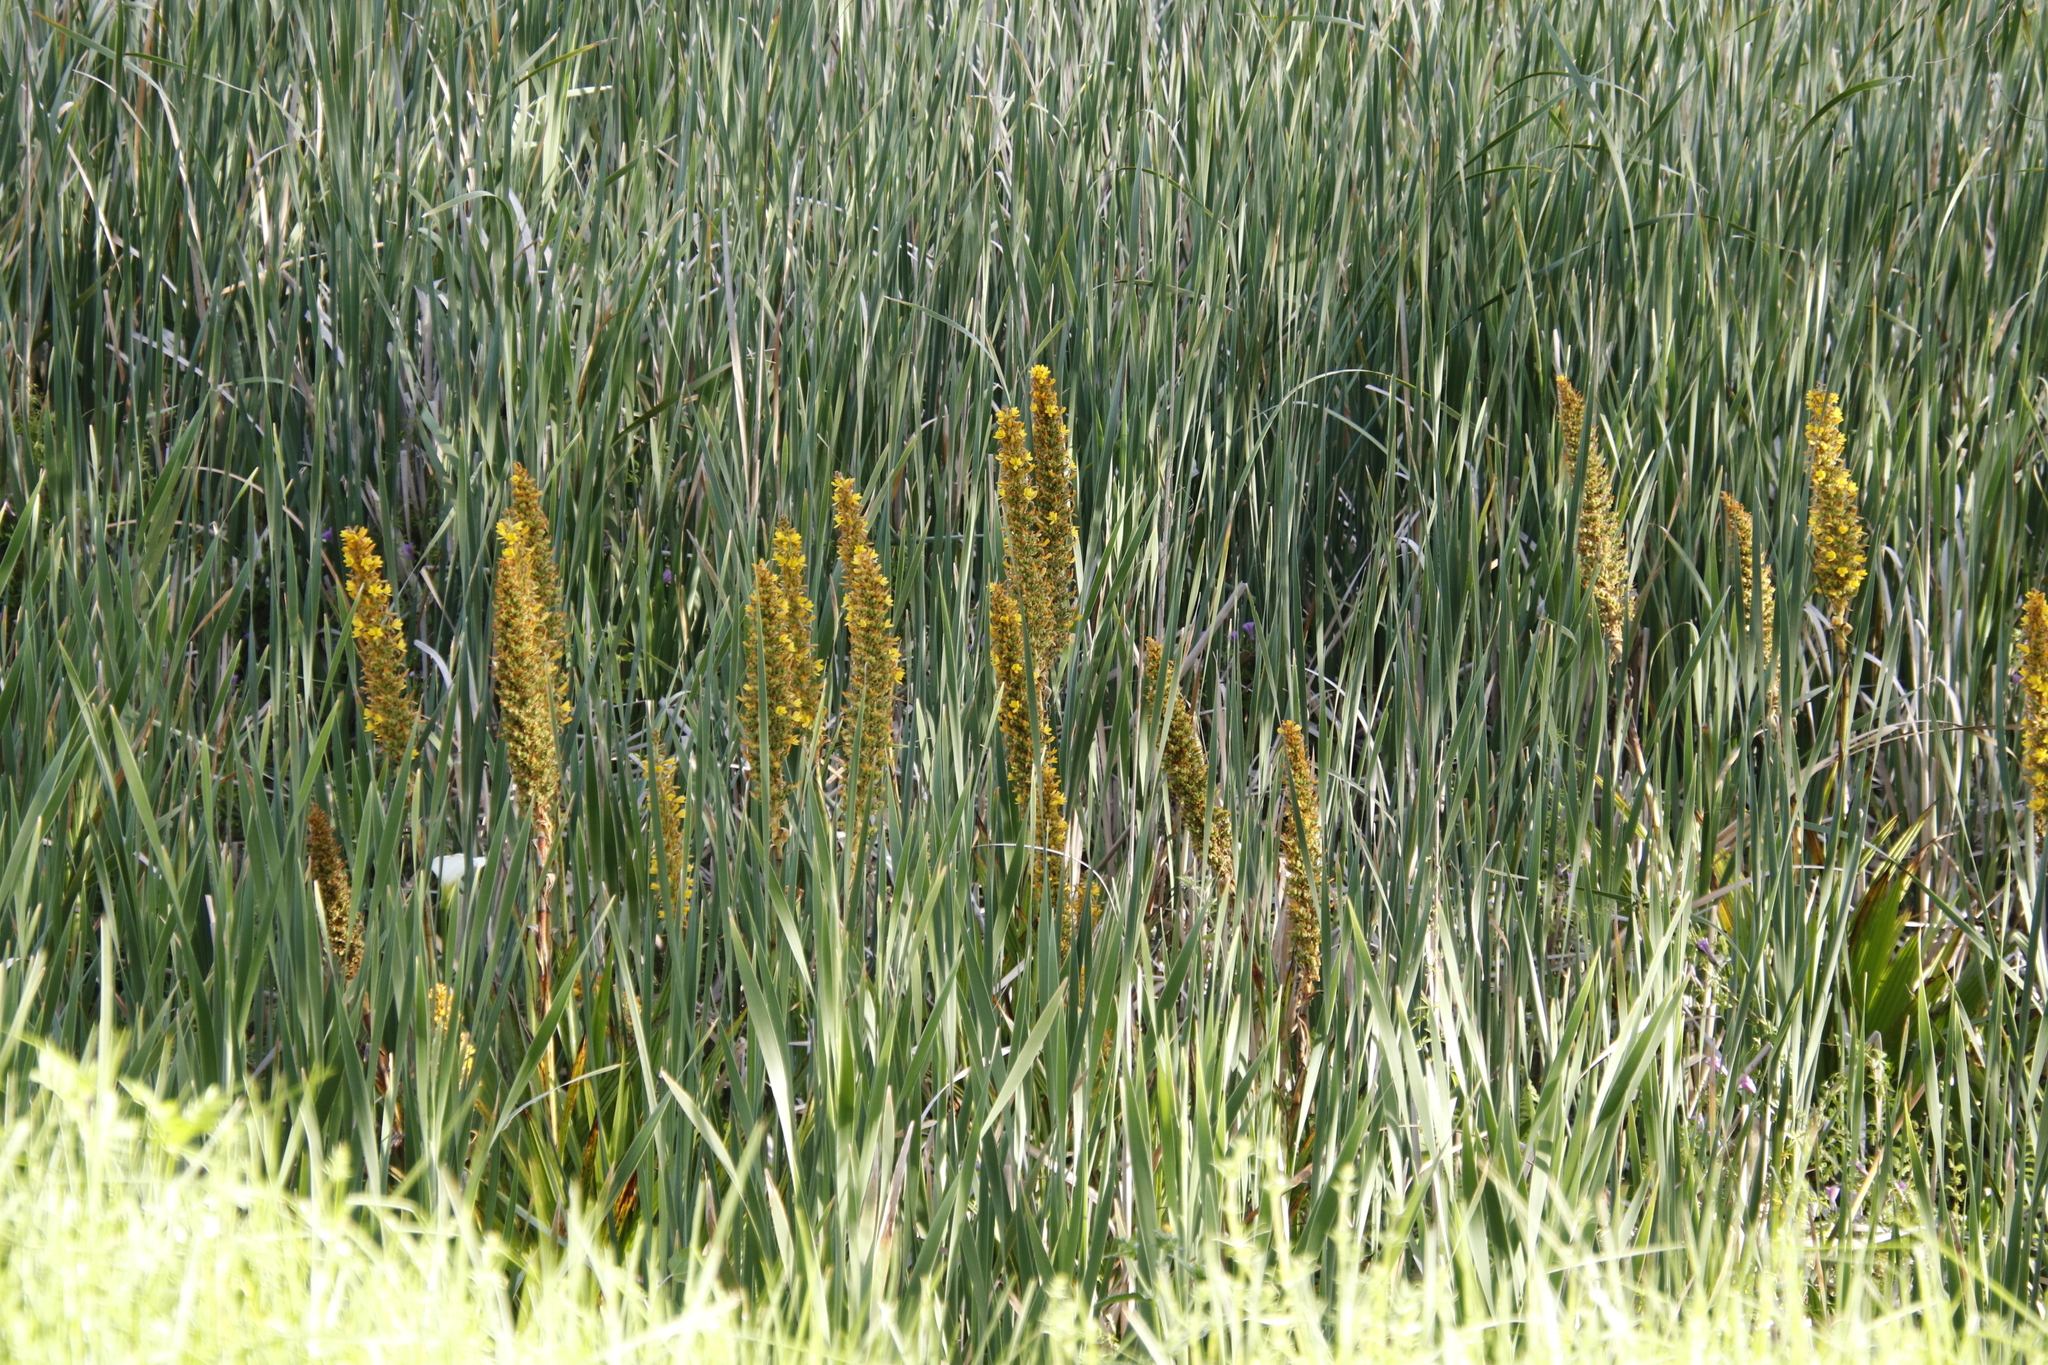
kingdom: Plantae
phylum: Tracheophyta
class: Liliopsida
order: Commelinales
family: Haemodoraceae
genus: Wachendorfia
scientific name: Wachendorfia thyrsiflora
